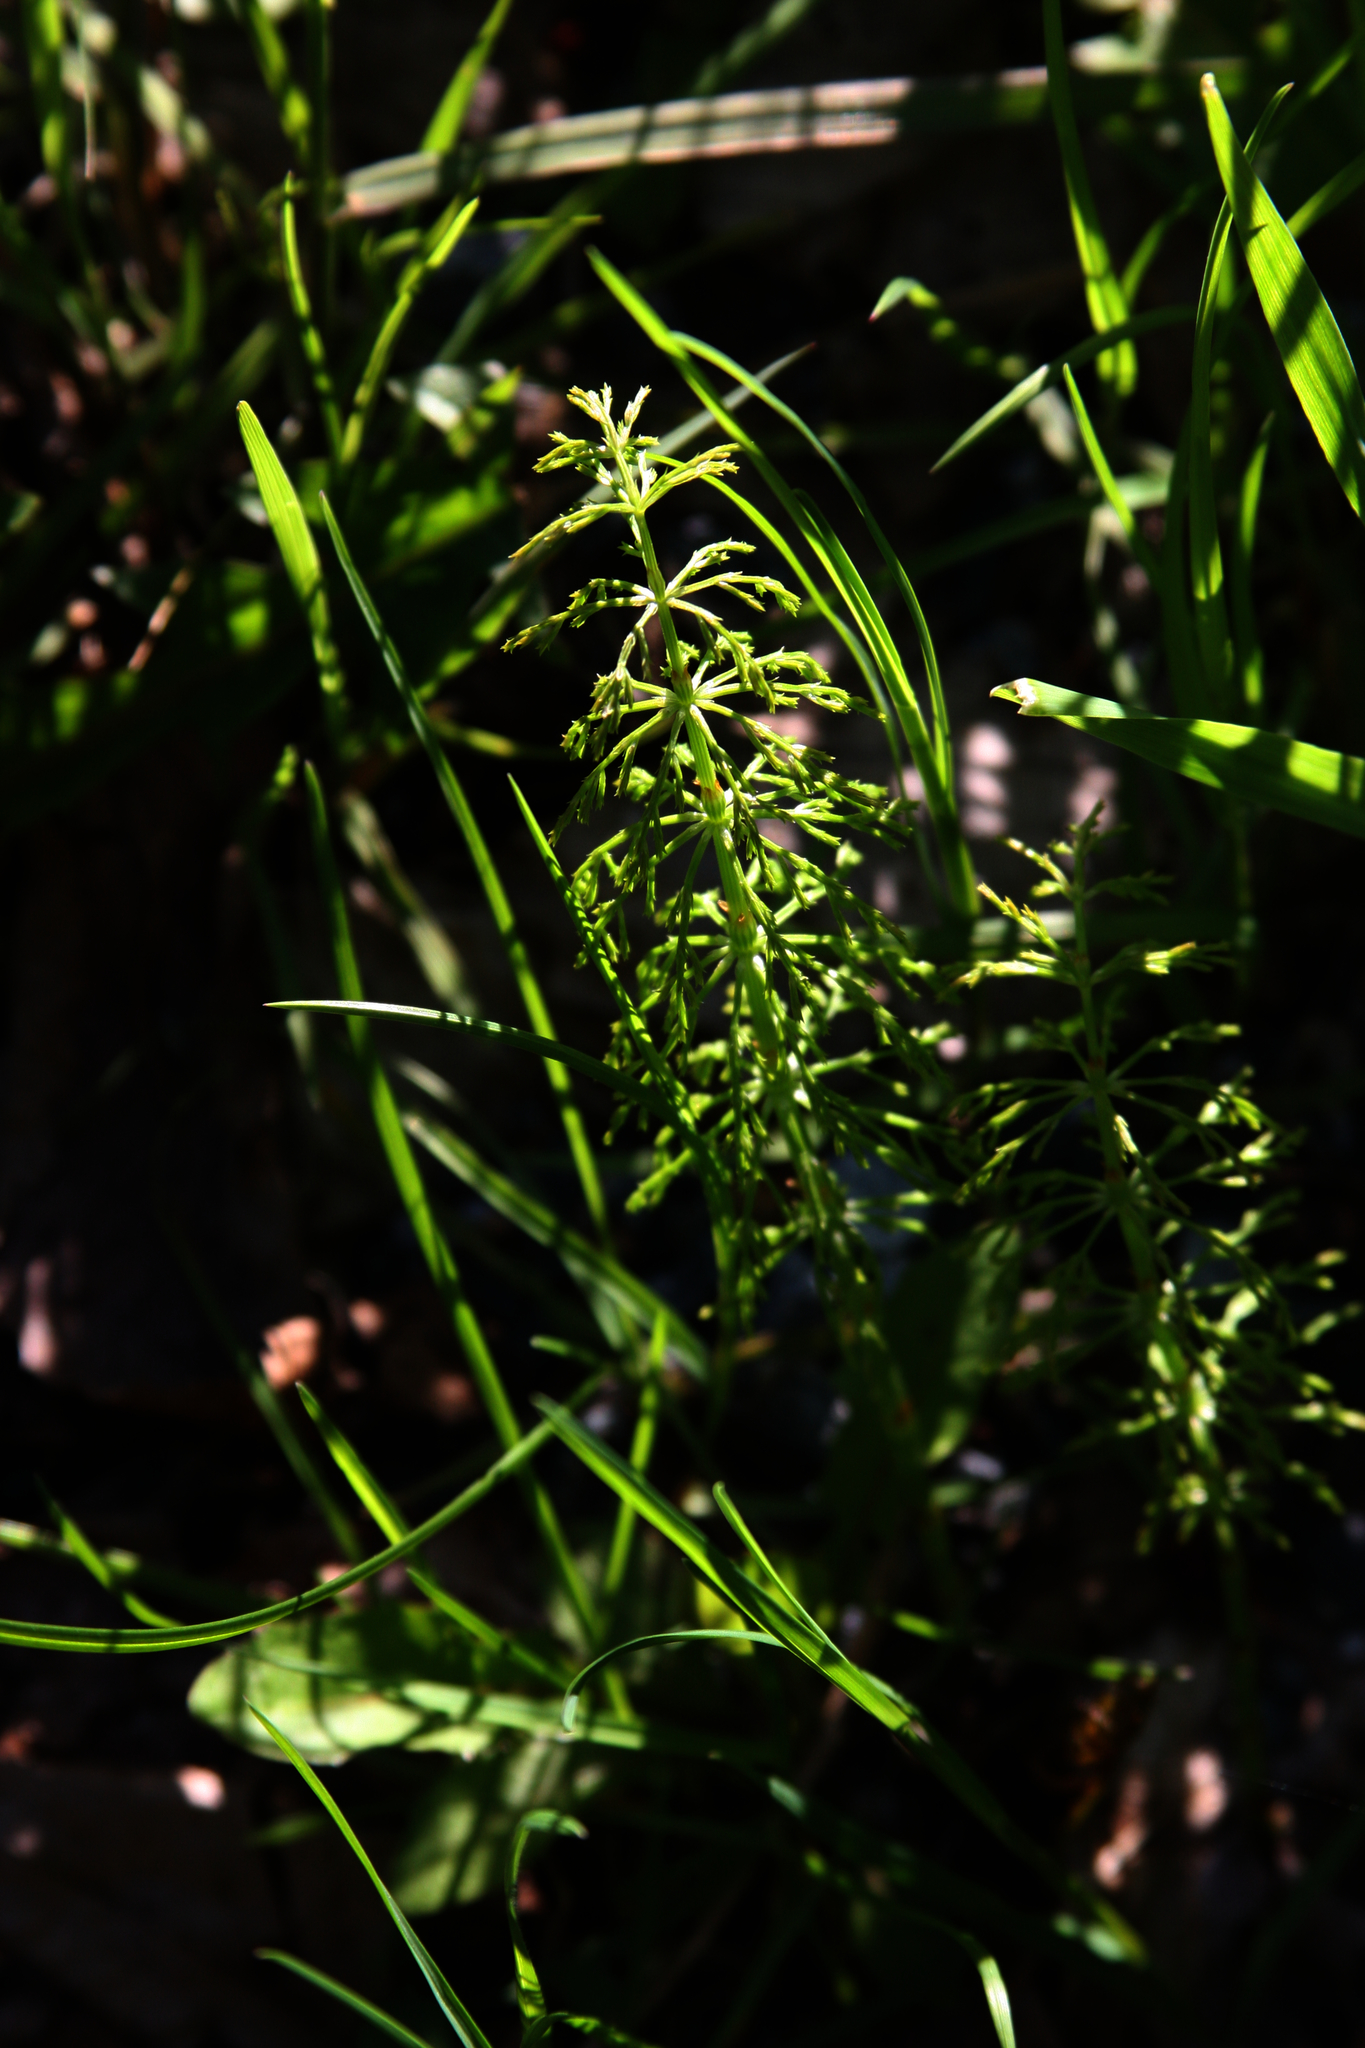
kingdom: Plantae
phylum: Tracheophyta
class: Polypodiopsida
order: Equisetales
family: Equisetaceae
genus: Equisetum
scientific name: Equisetum sylvaticum
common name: Wood horsetail
